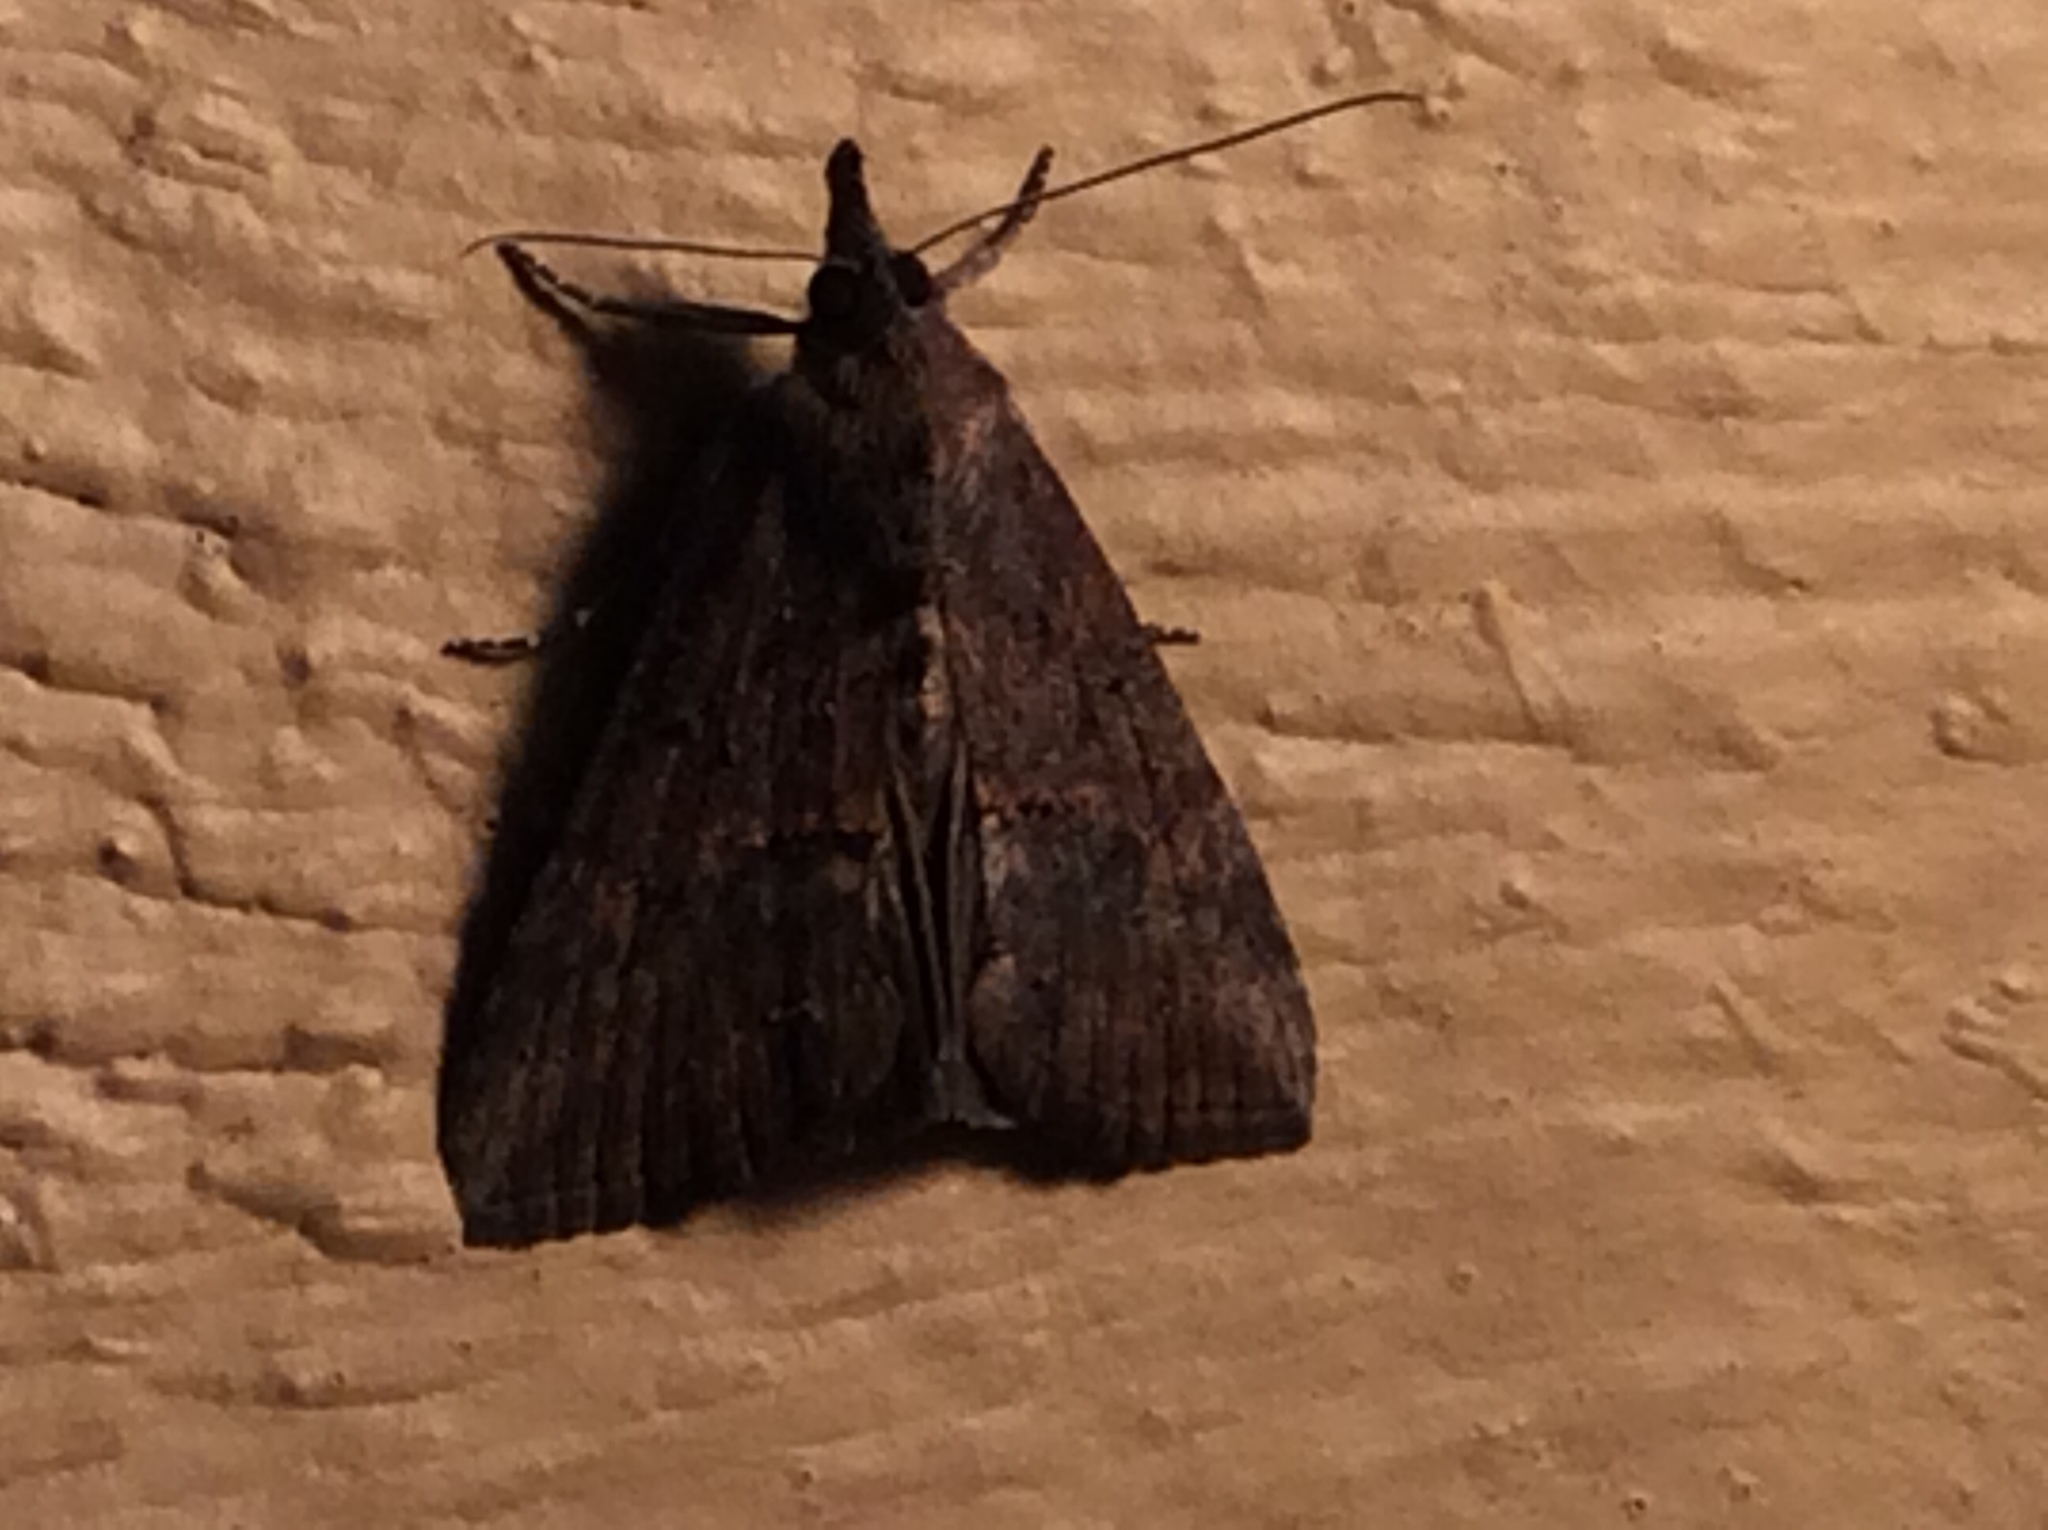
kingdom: Animalia
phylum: Arthropoda
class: Insecta
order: Lepidoptera
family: Erebidae
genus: Hypena
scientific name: Hypena scabra
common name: Green cloverworm
